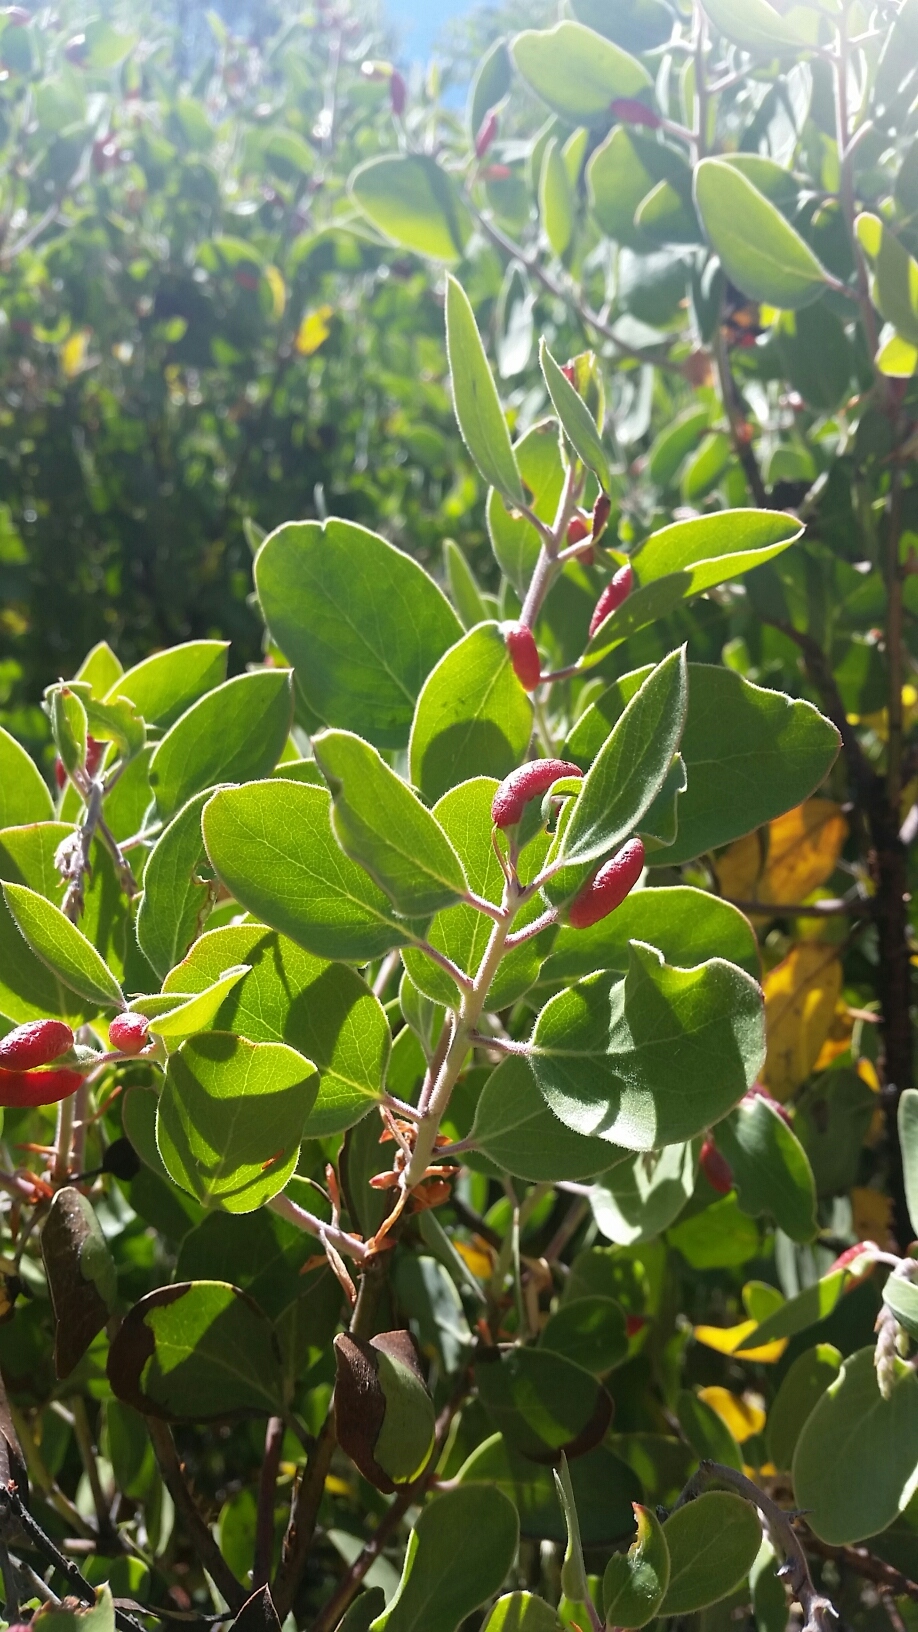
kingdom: Animalia
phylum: Arthropoda
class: Insecta
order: Hemiptera
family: Aphididae
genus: Tamalia
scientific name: Tamalia coweni
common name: Manzanita leafgall aphid
